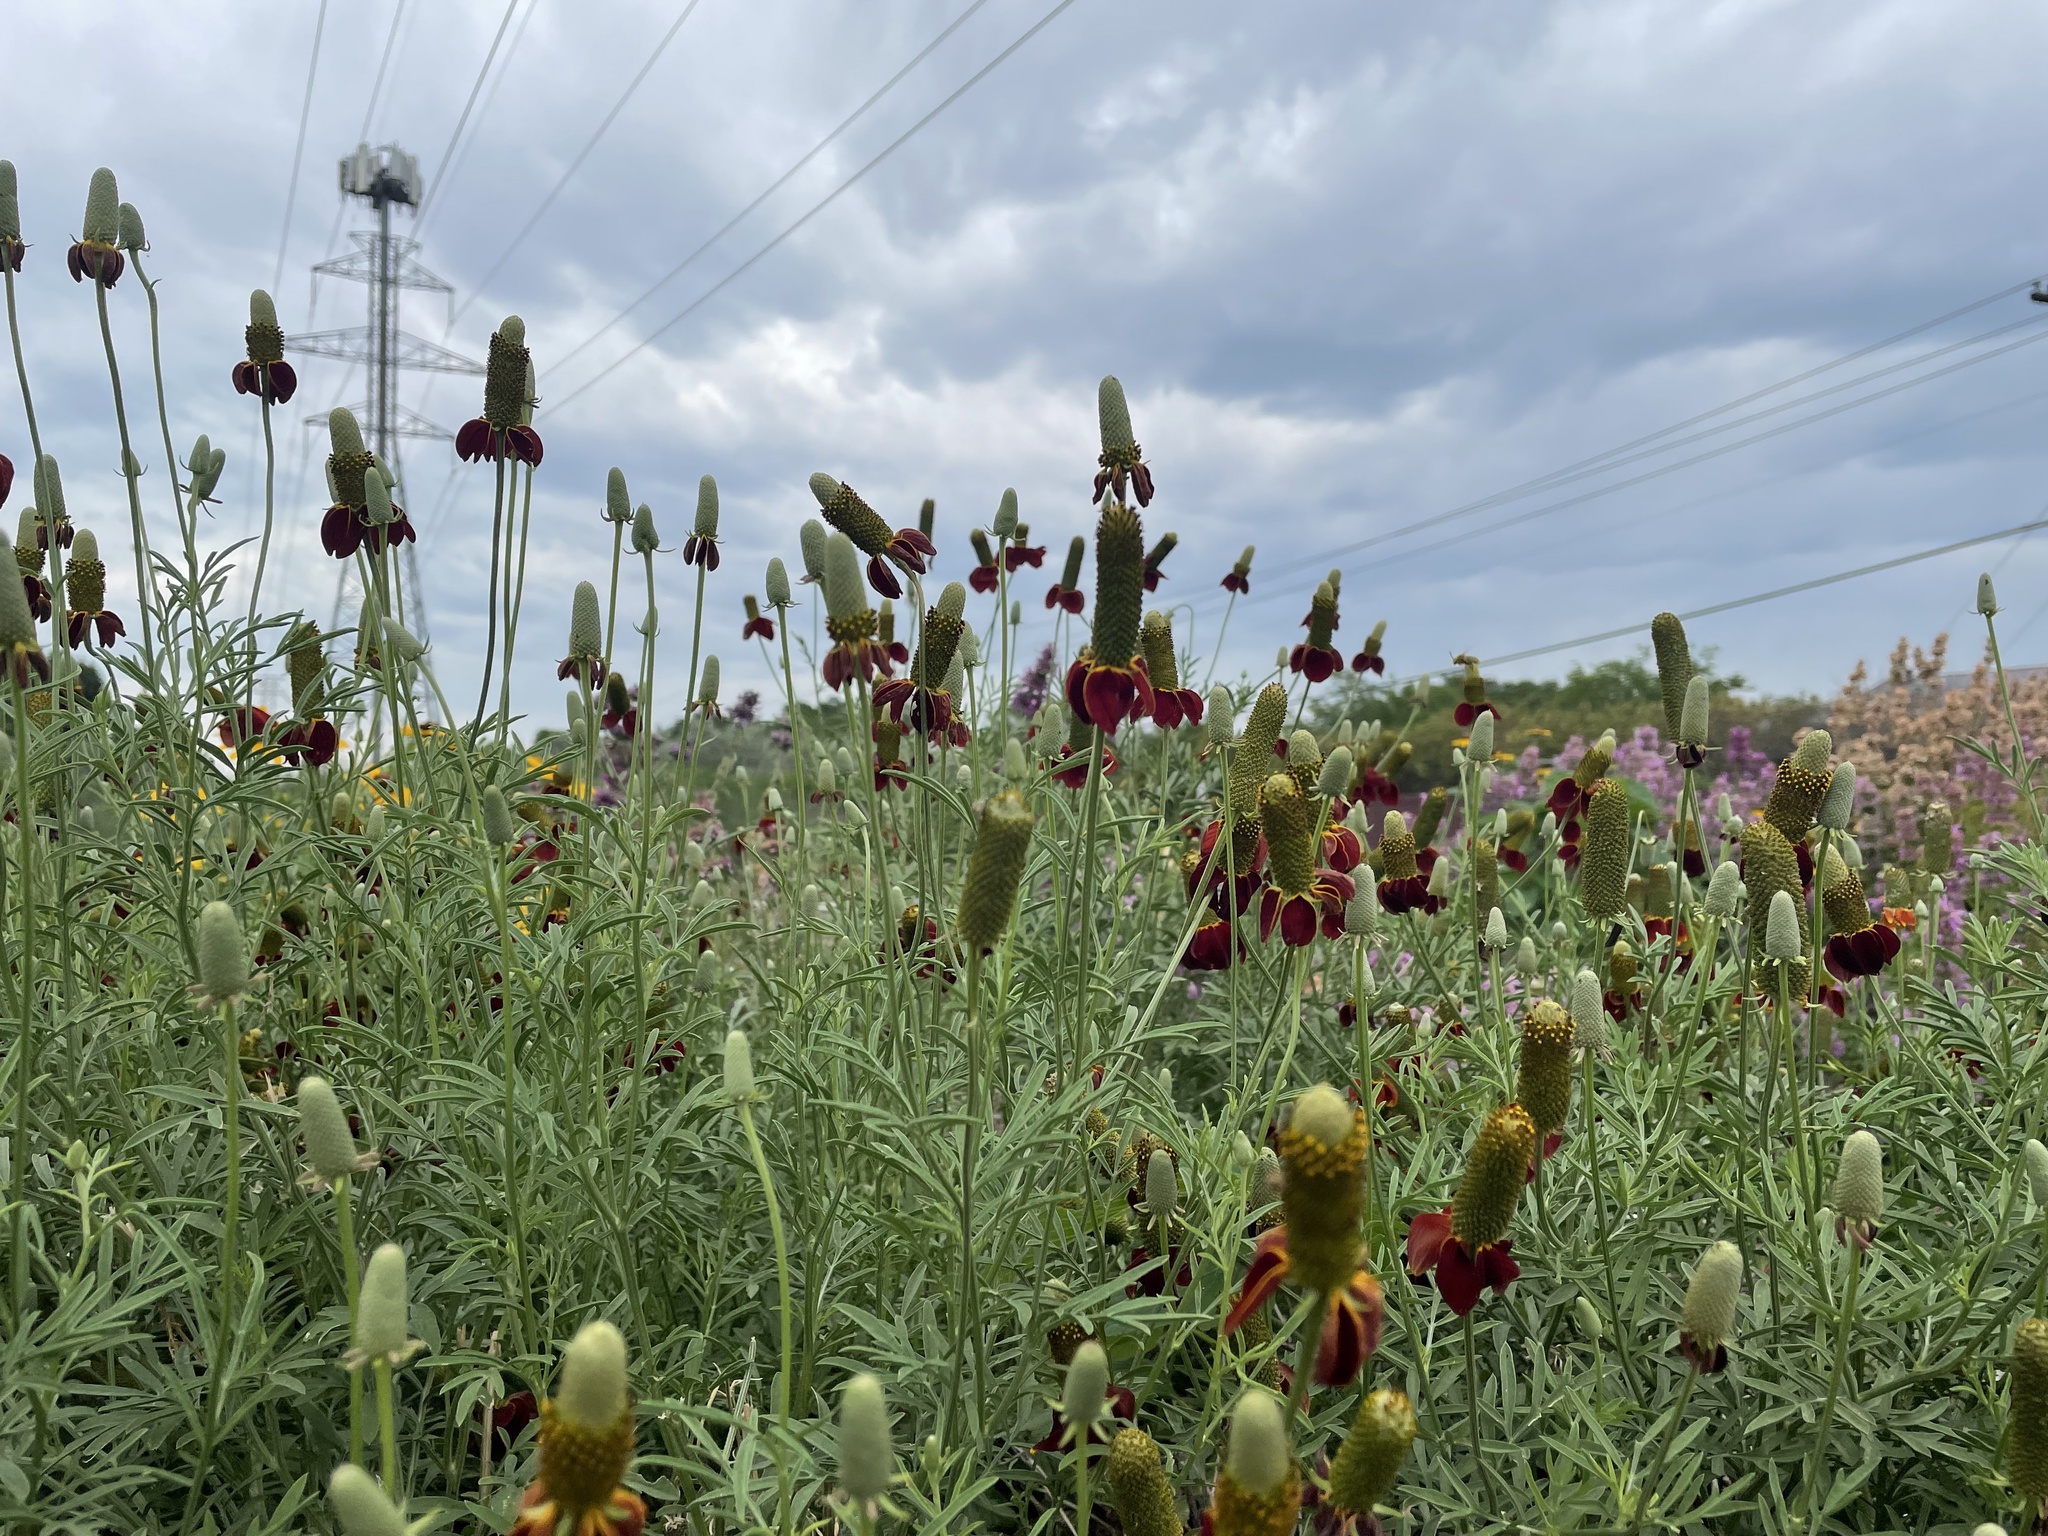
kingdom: Plantae
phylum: Tracheophyta
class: Magnoliopsida
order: Asterales
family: Asteraceae
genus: Ratibida
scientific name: Ratibida columnifera
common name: Prairie coneflower
